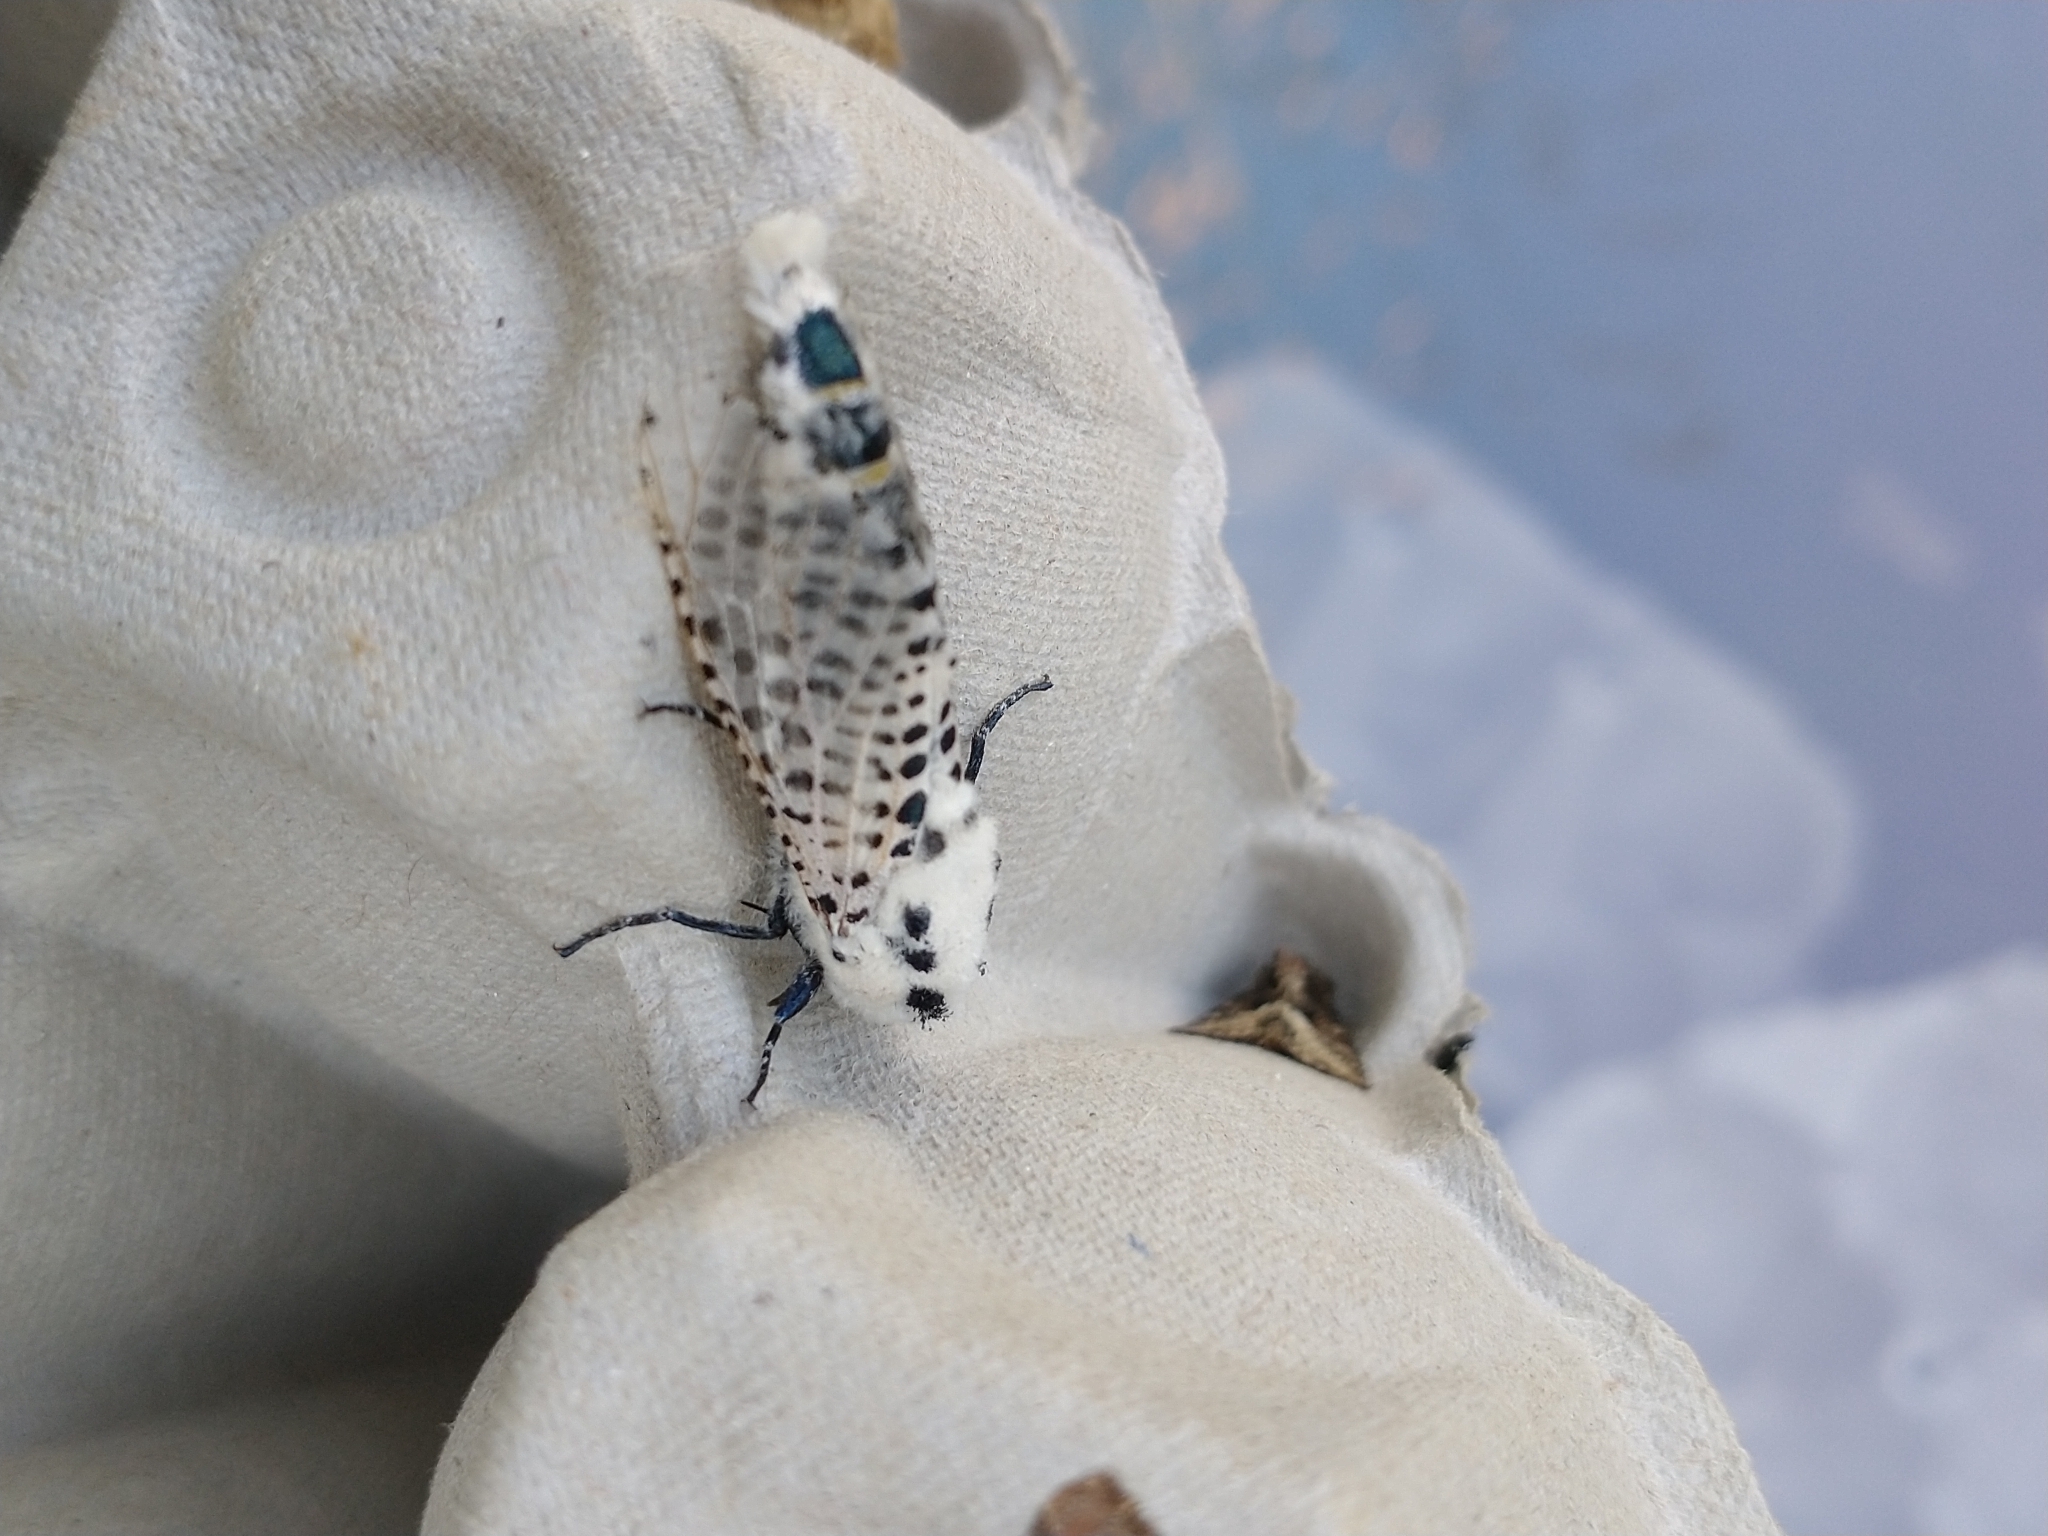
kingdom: Animalia
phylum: Arthropoda
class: Insecta
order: Lepidoptera
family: Cossidae
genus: Zeuzera
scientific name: Zeuzera pyrina
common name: Leopard moth
